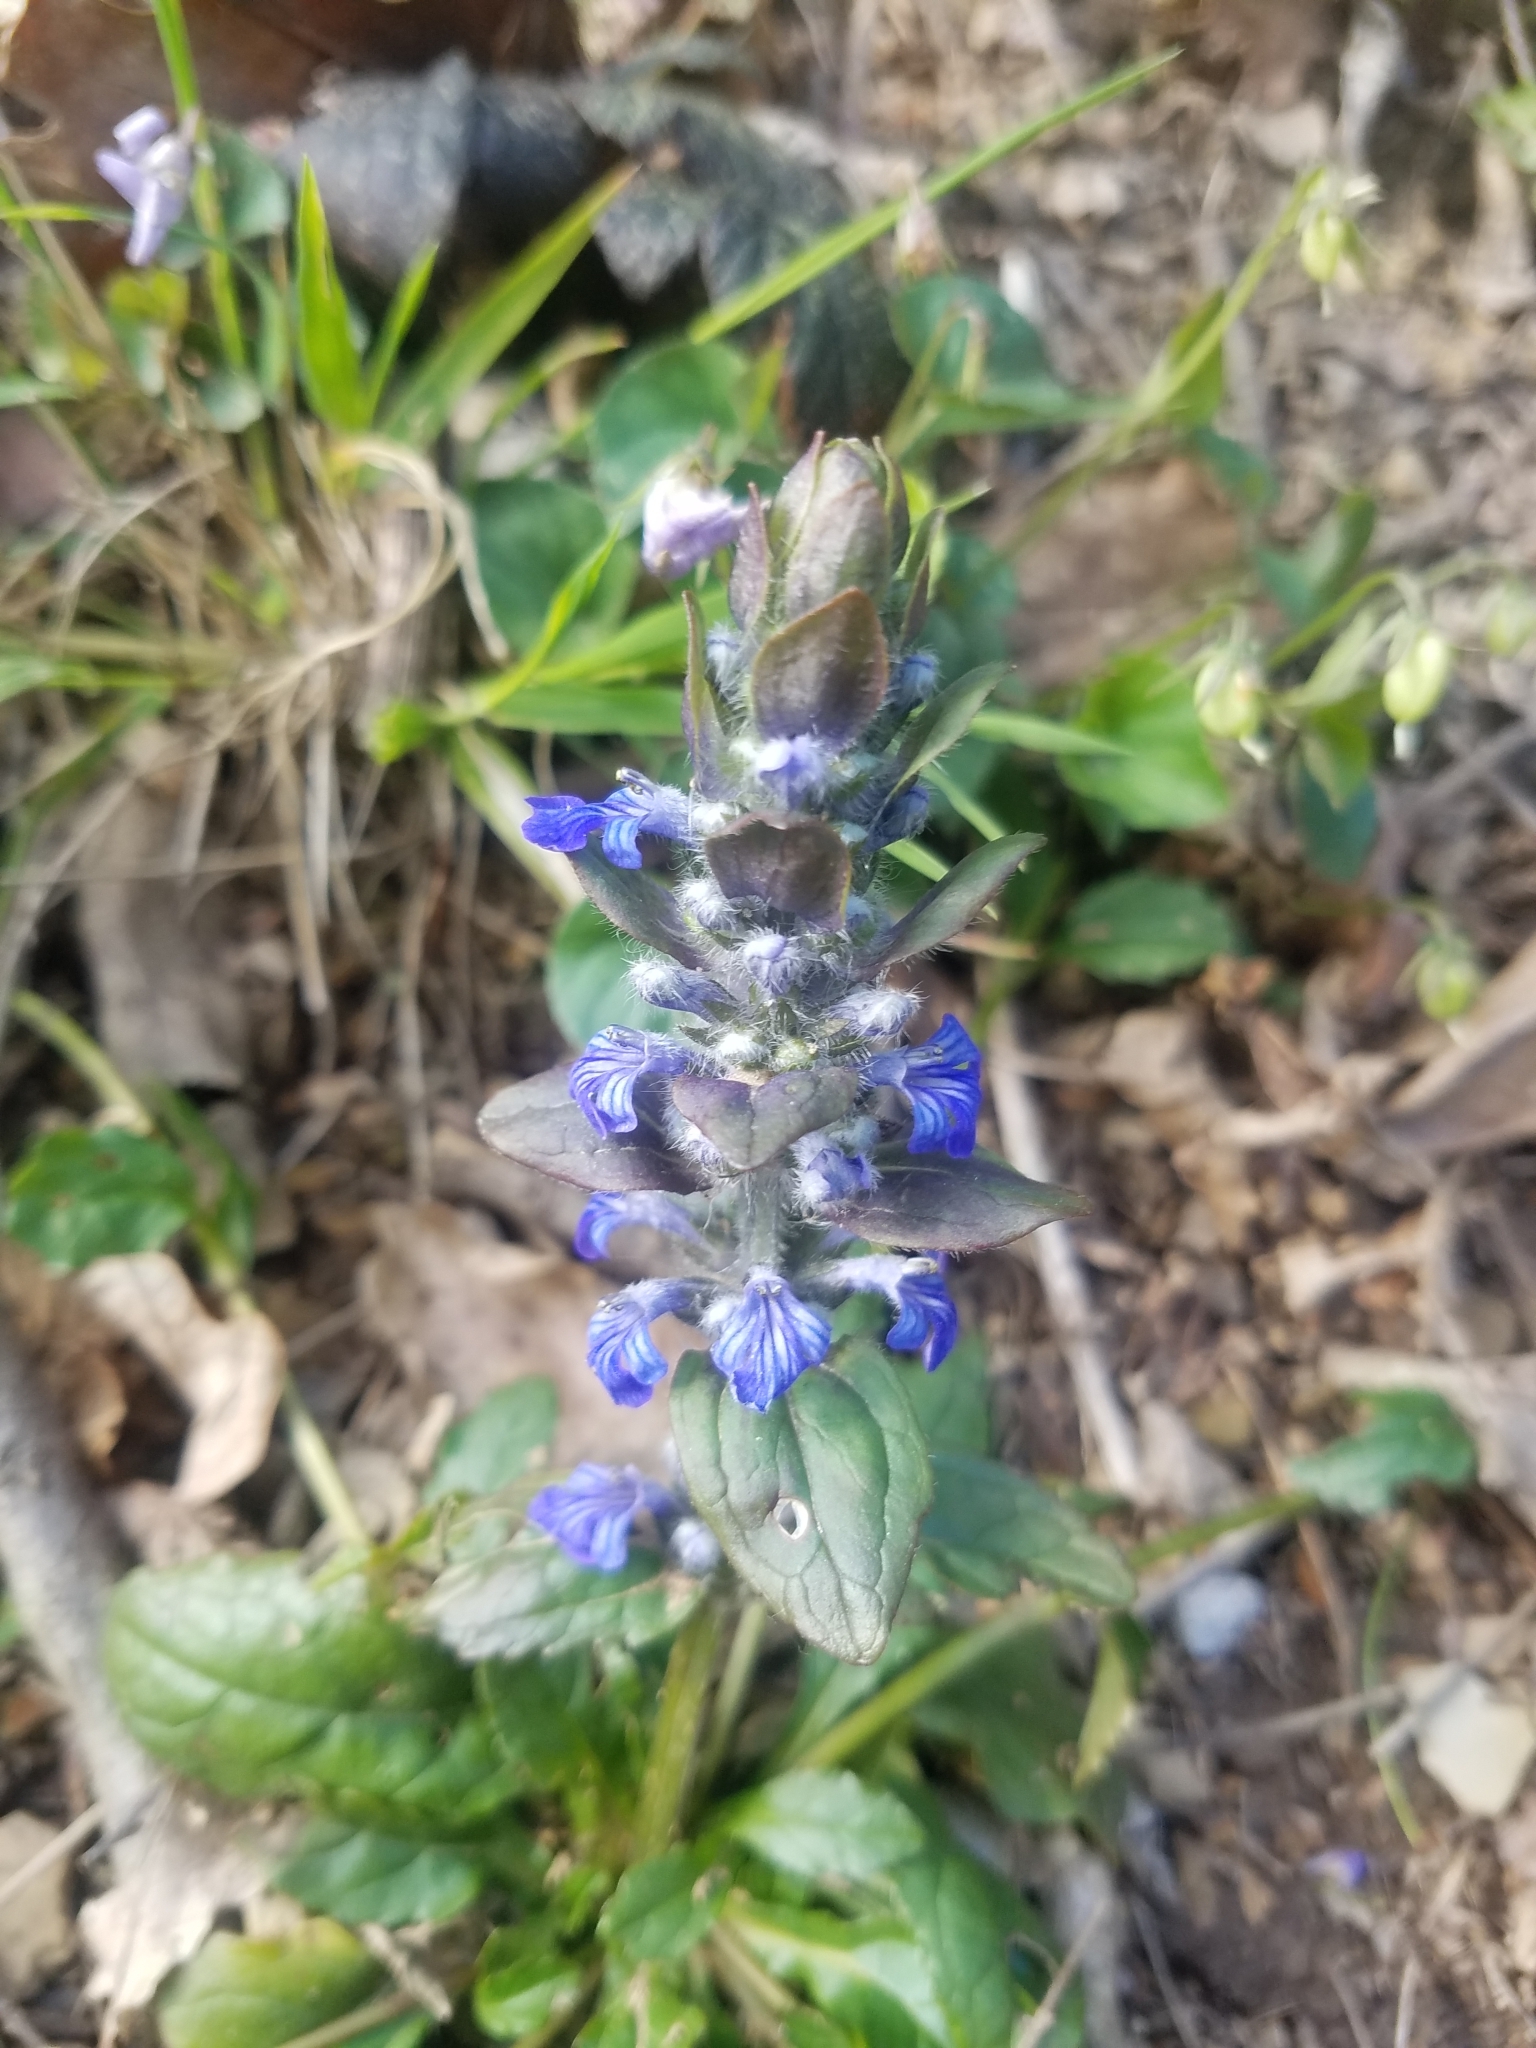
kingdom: Plantae
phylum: Tracheophyta
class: Magnoliopsida
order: Lamiales
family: Lamiaceae
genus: Ajuga
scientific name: Ajuga reptans
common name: Bugle
